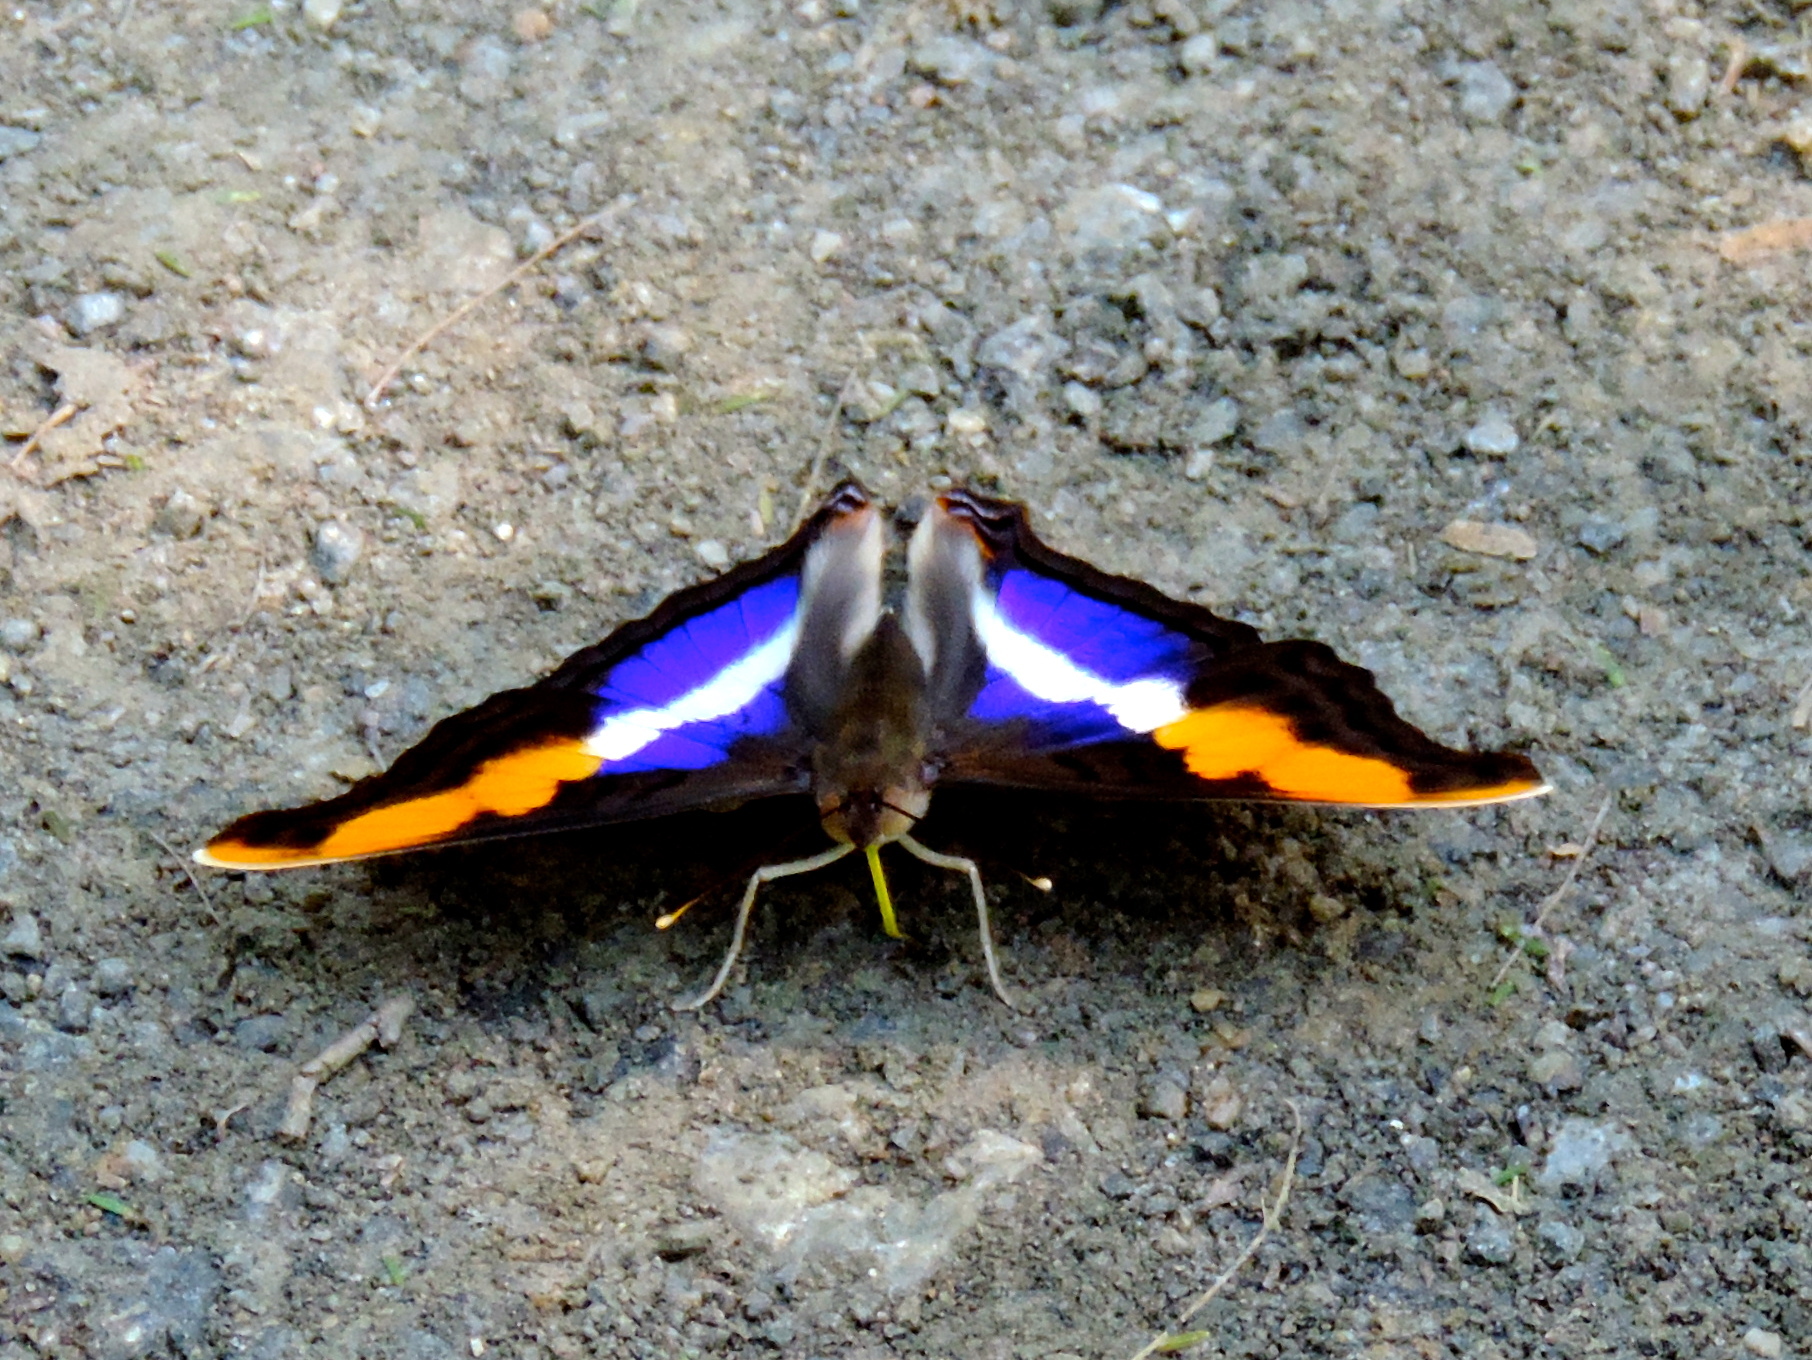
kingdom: Animalia
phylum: Arthropoda
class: Insecta
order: Lepidoptera
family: Nymphalidae
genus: Doxocopa
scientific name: Doxocopa laure
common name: Silver emperor
